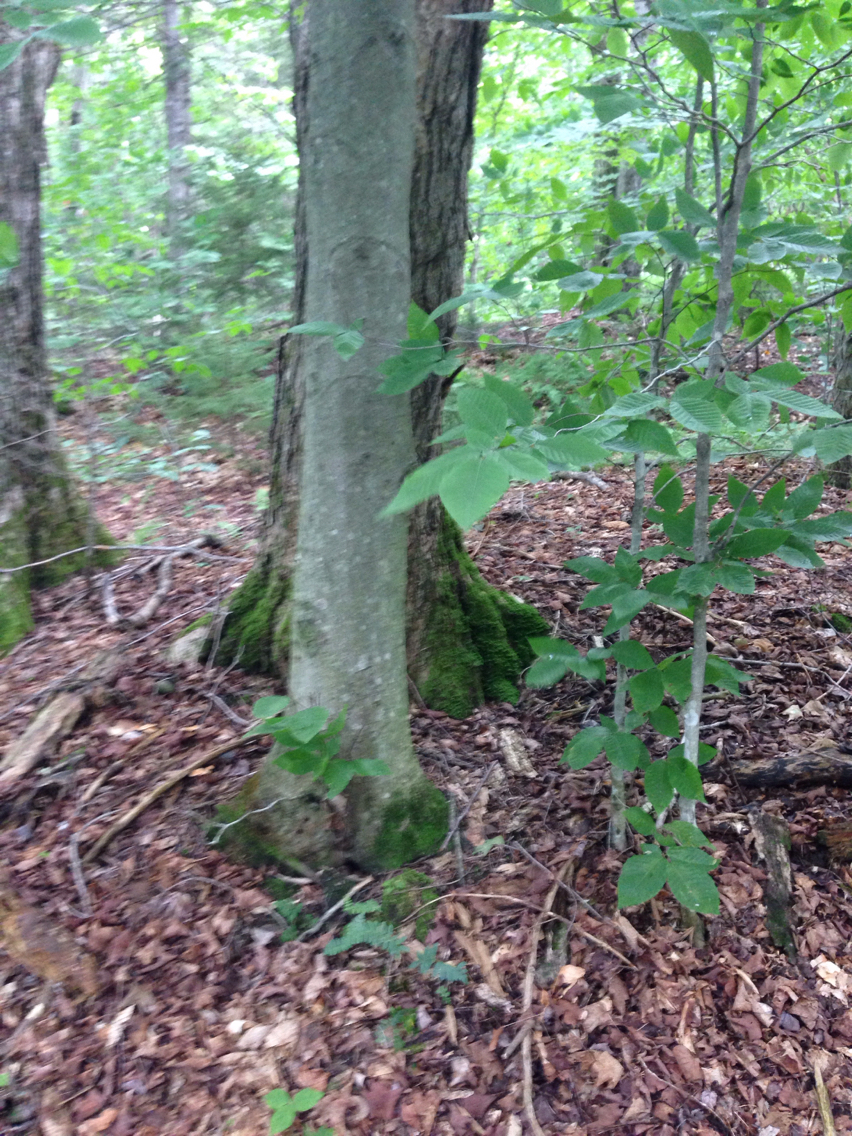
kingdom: Plantae
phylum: Tracheophyta
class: Magnoliopsida
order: Fagales
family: Fagaceae
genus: Fagus
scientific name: Fagus grandifolia
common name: American beech
